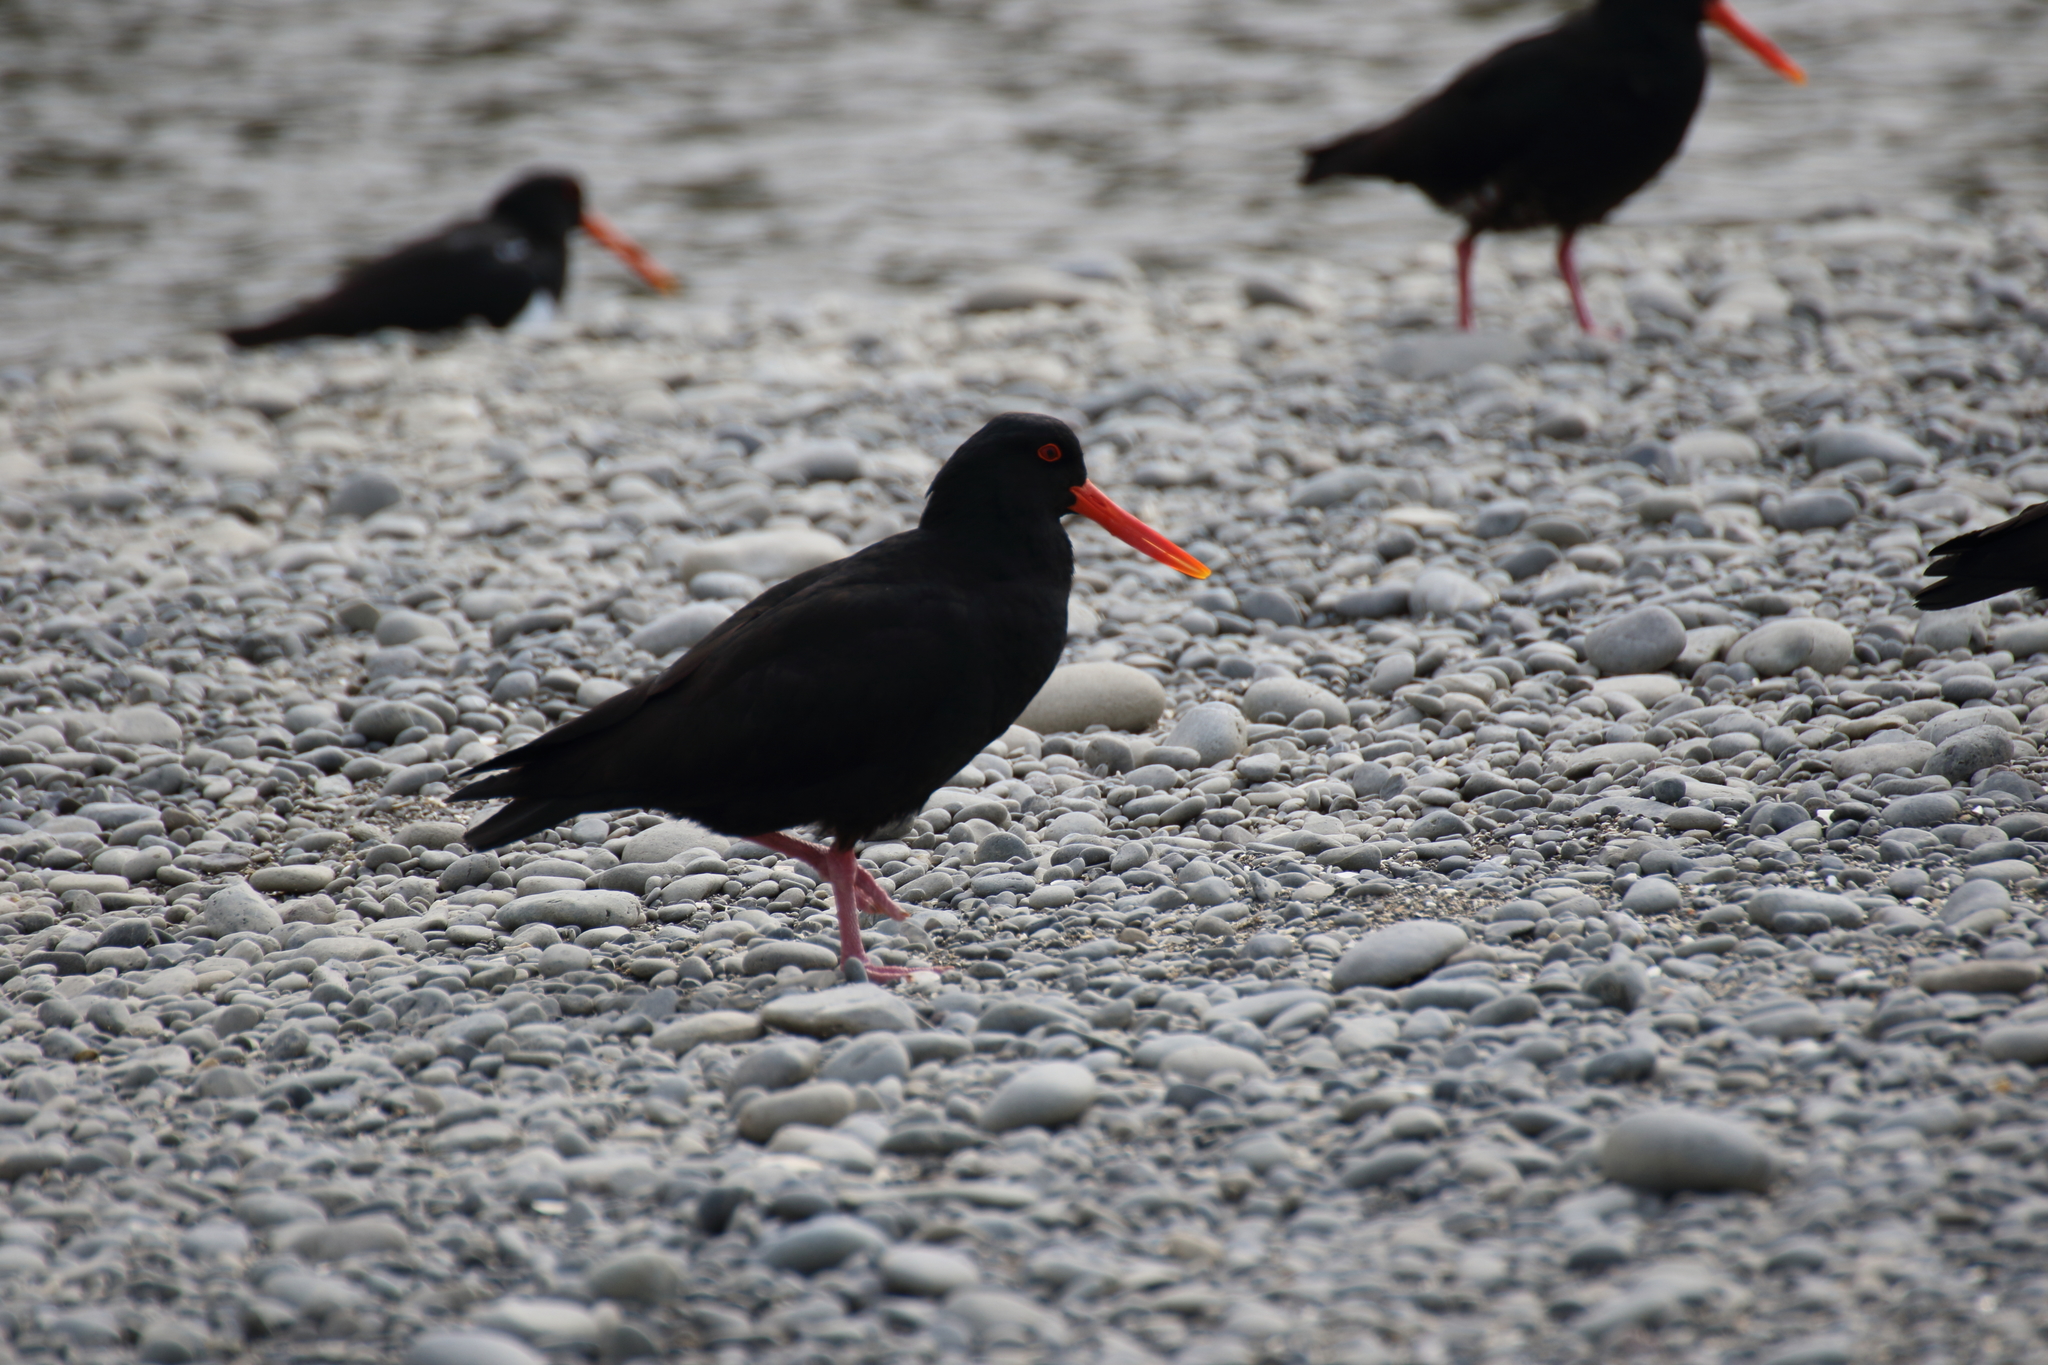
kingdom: Animalia
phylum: Chordata
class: Aves
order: Charadriiformes
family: Haematopodidae
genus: Haematopus
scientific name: Haematopus unicolor
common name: Variable oystercatcher
